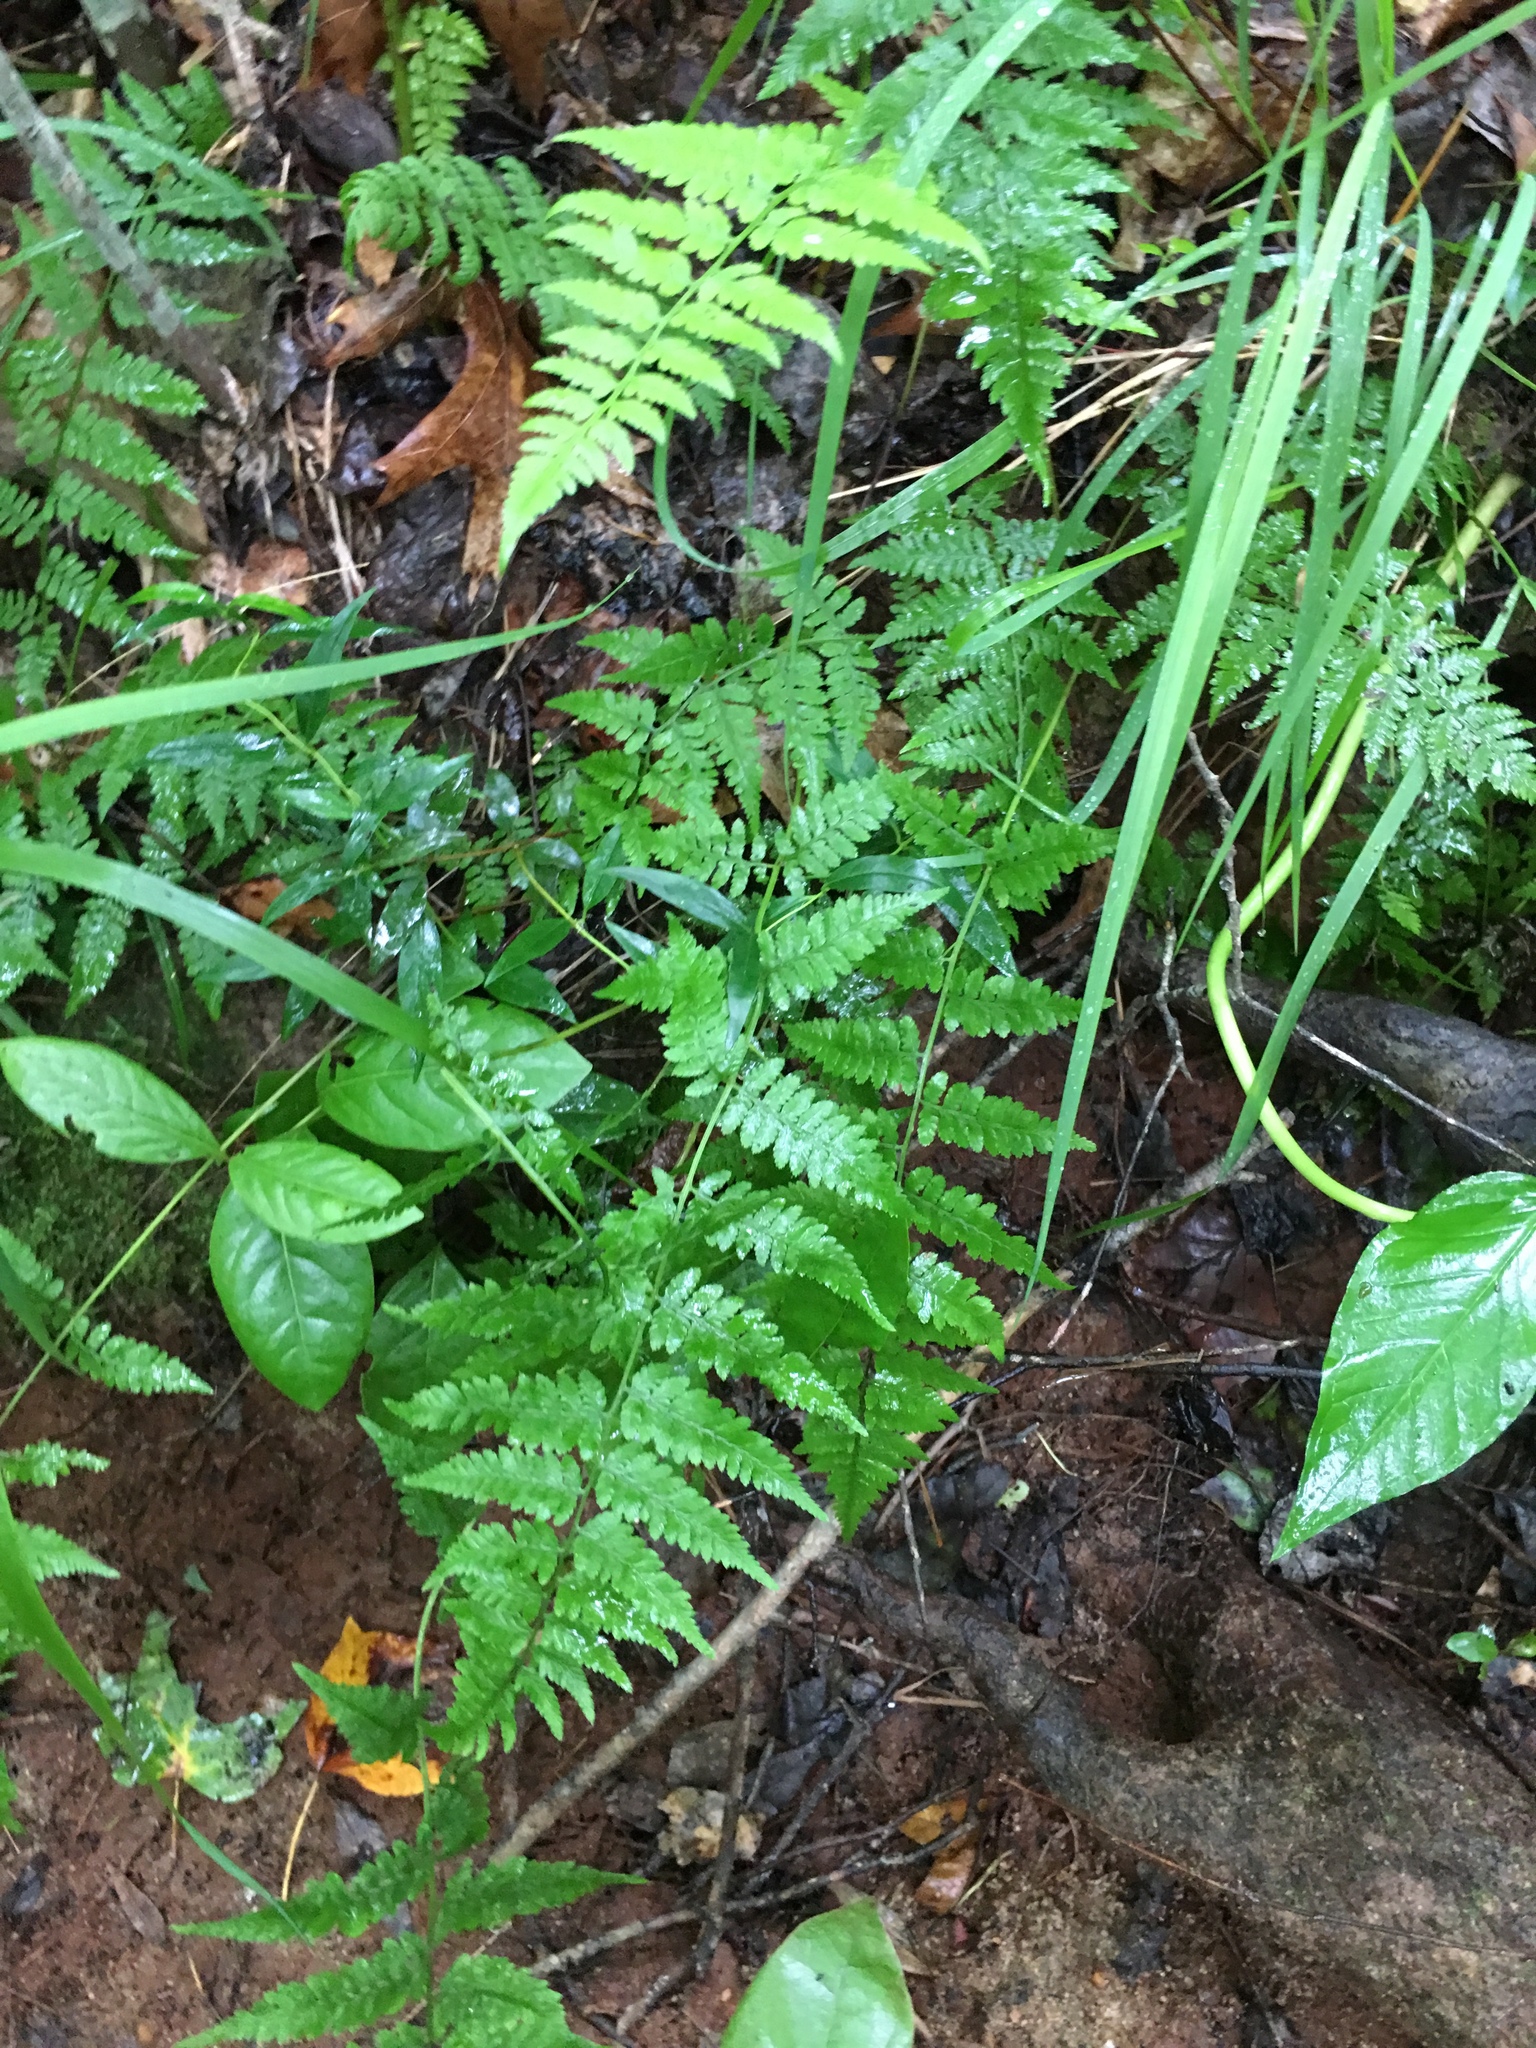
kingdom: Plantae
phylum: Tracheophyta
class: Polypodiopsida
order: Polypodiales
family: Athyriaceae
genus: Athyrium
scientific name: Athyrium asplenioides
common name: Southern lady fern
